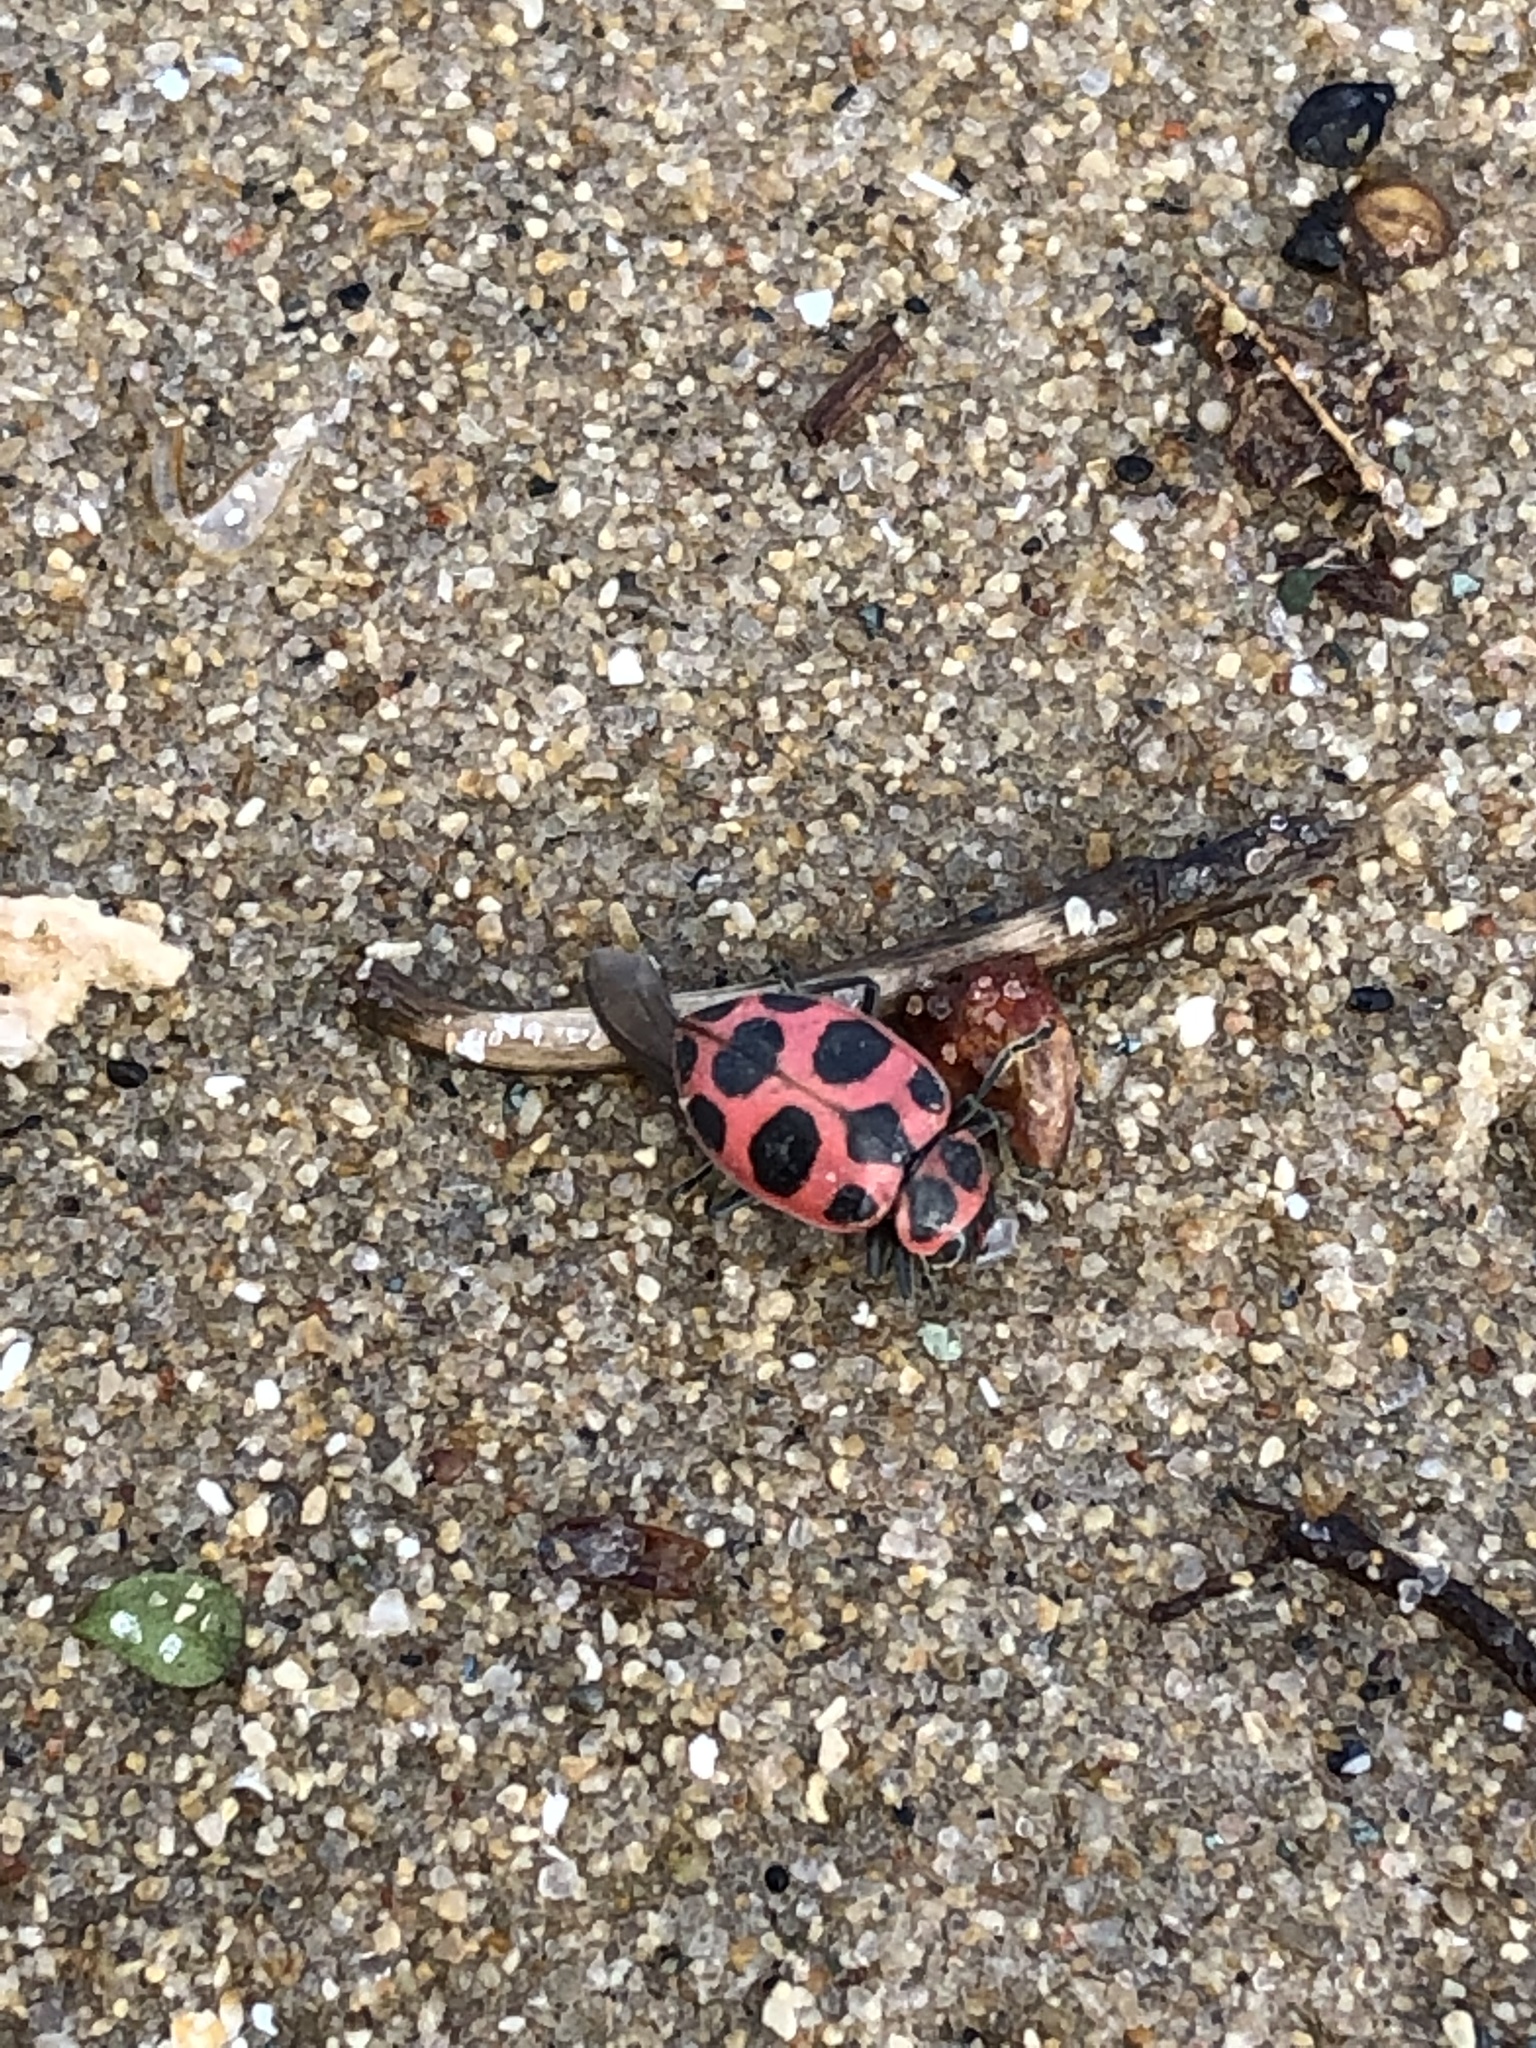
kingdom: Animalia
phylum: Arthropoda
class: Insecta
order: Coleoptera
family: Coccinellidae
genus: Coleomegilla
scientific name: Coleomegilla maculata
